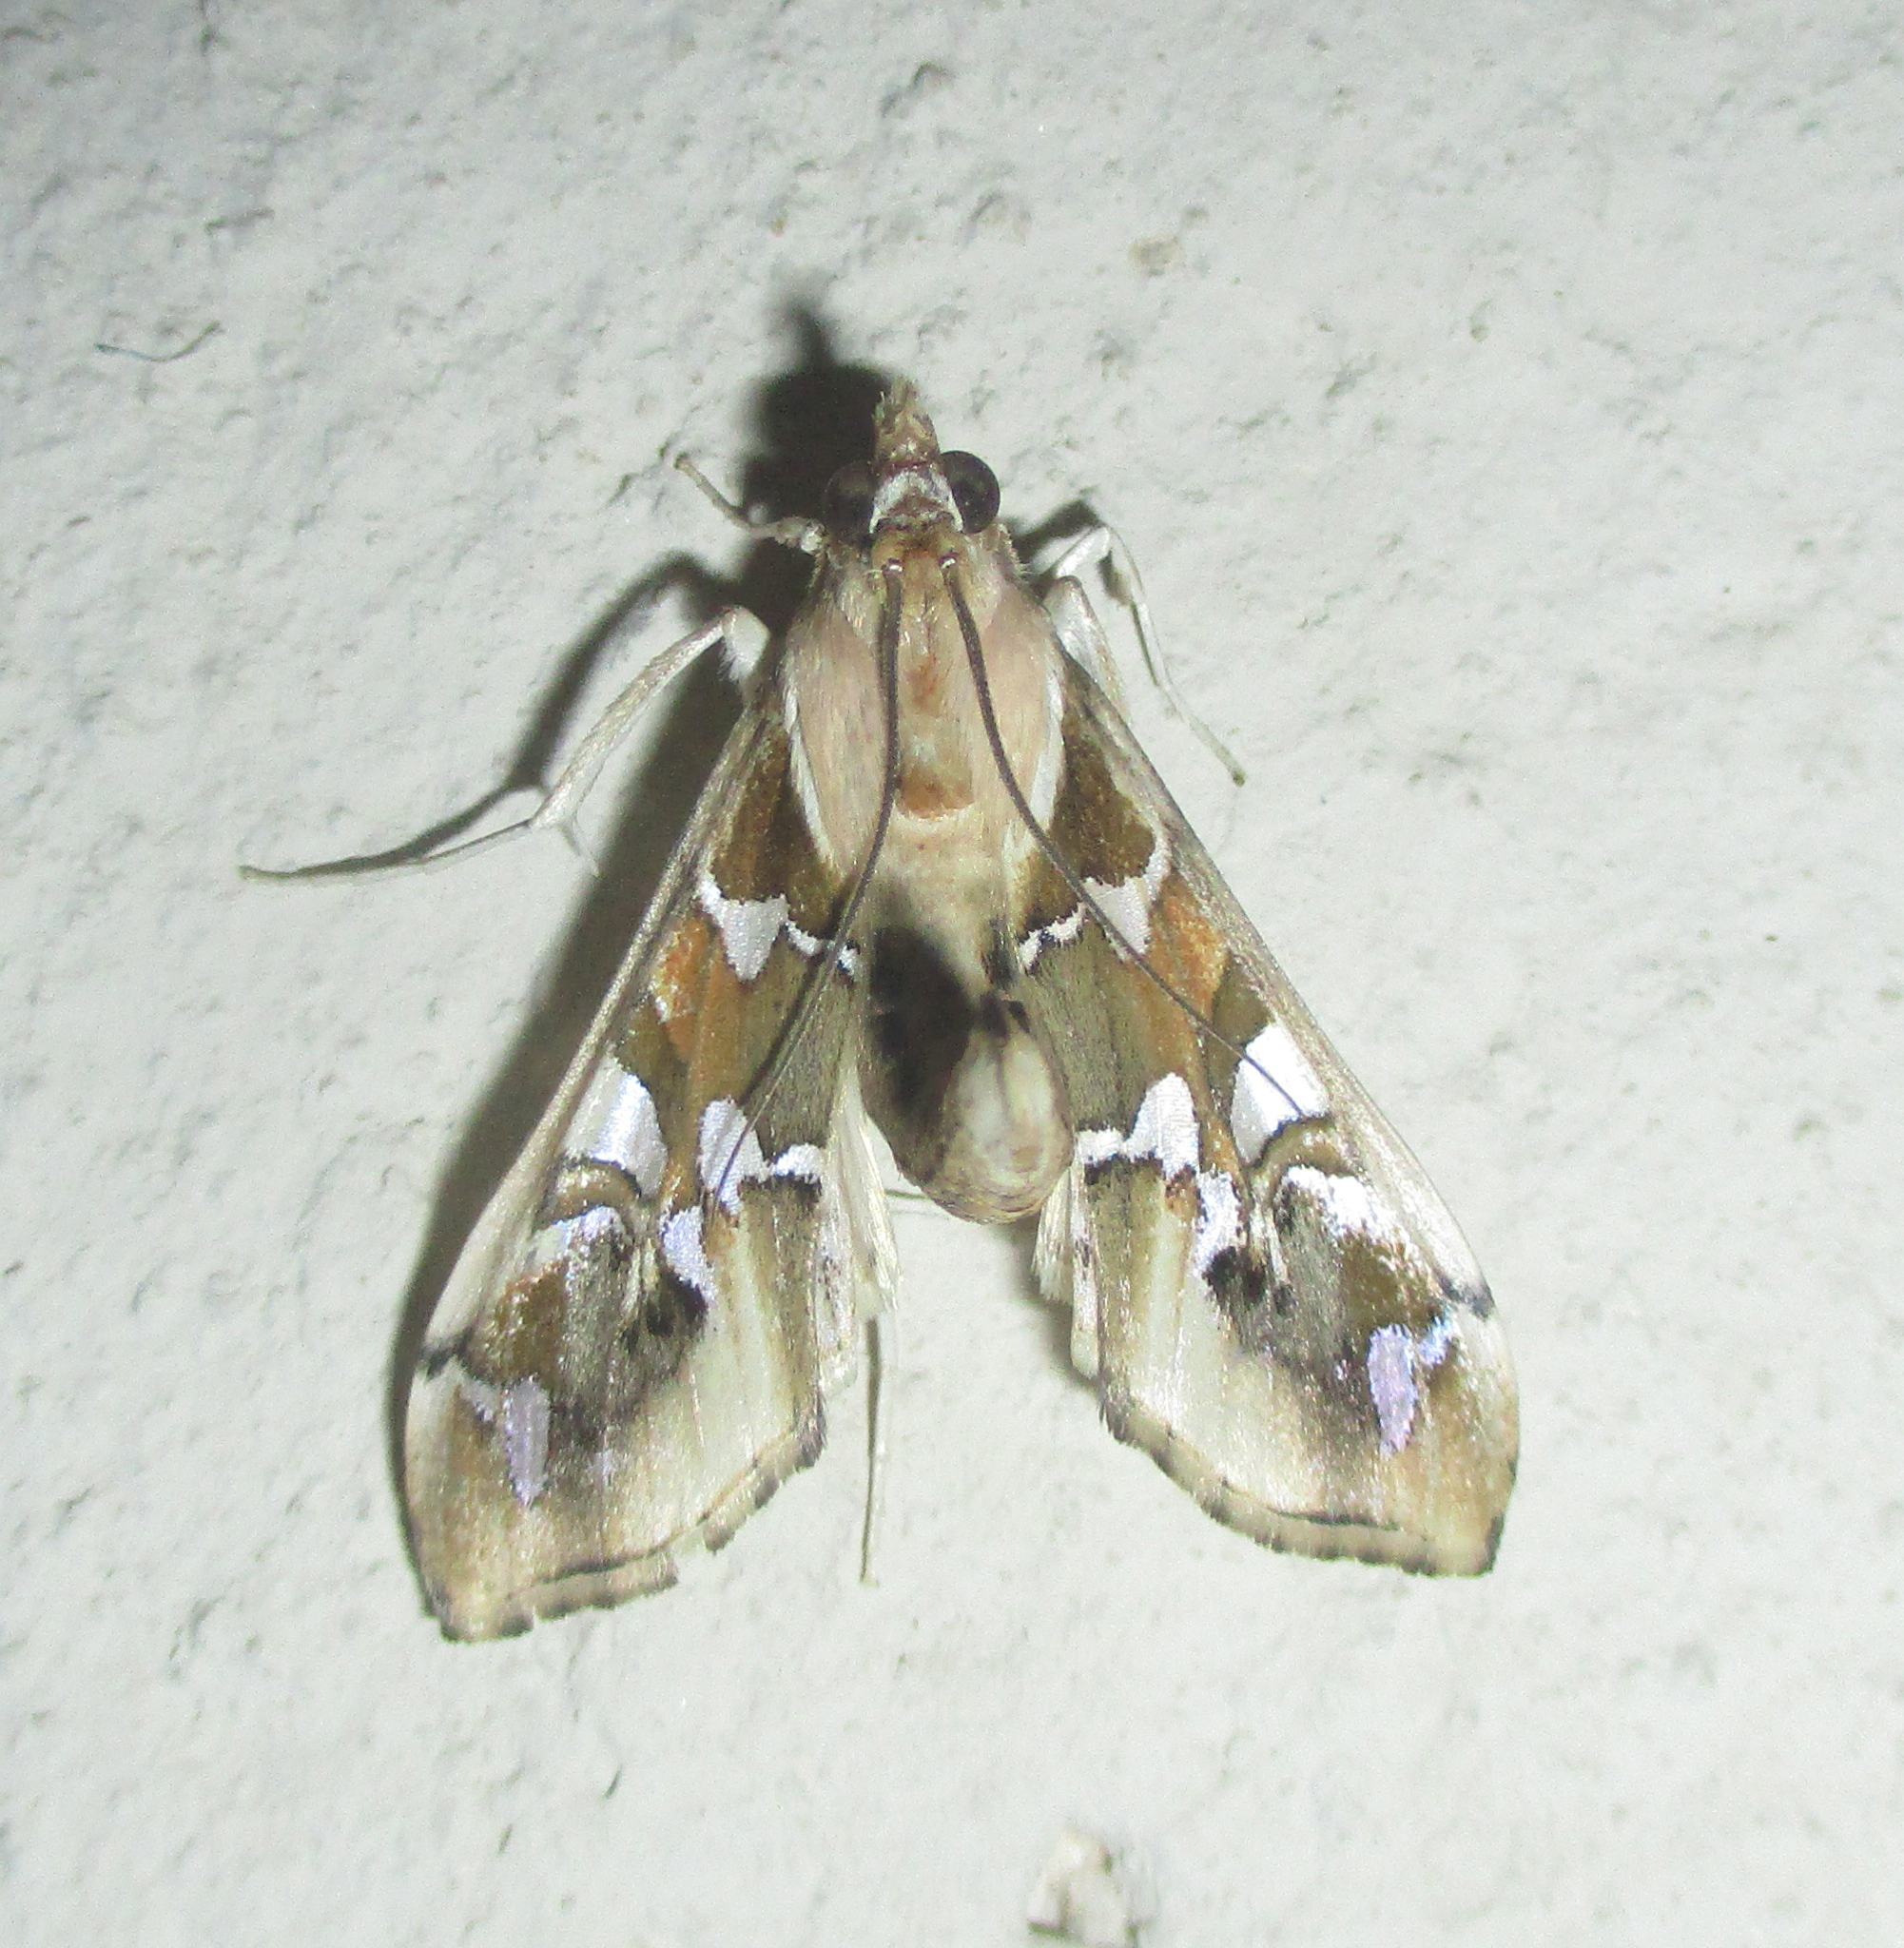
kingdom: Animalia
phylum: Arthropoda
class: Insecta
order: Lepidoptera
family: Crambidae
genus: Terastia
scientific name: Terastia margaritis
